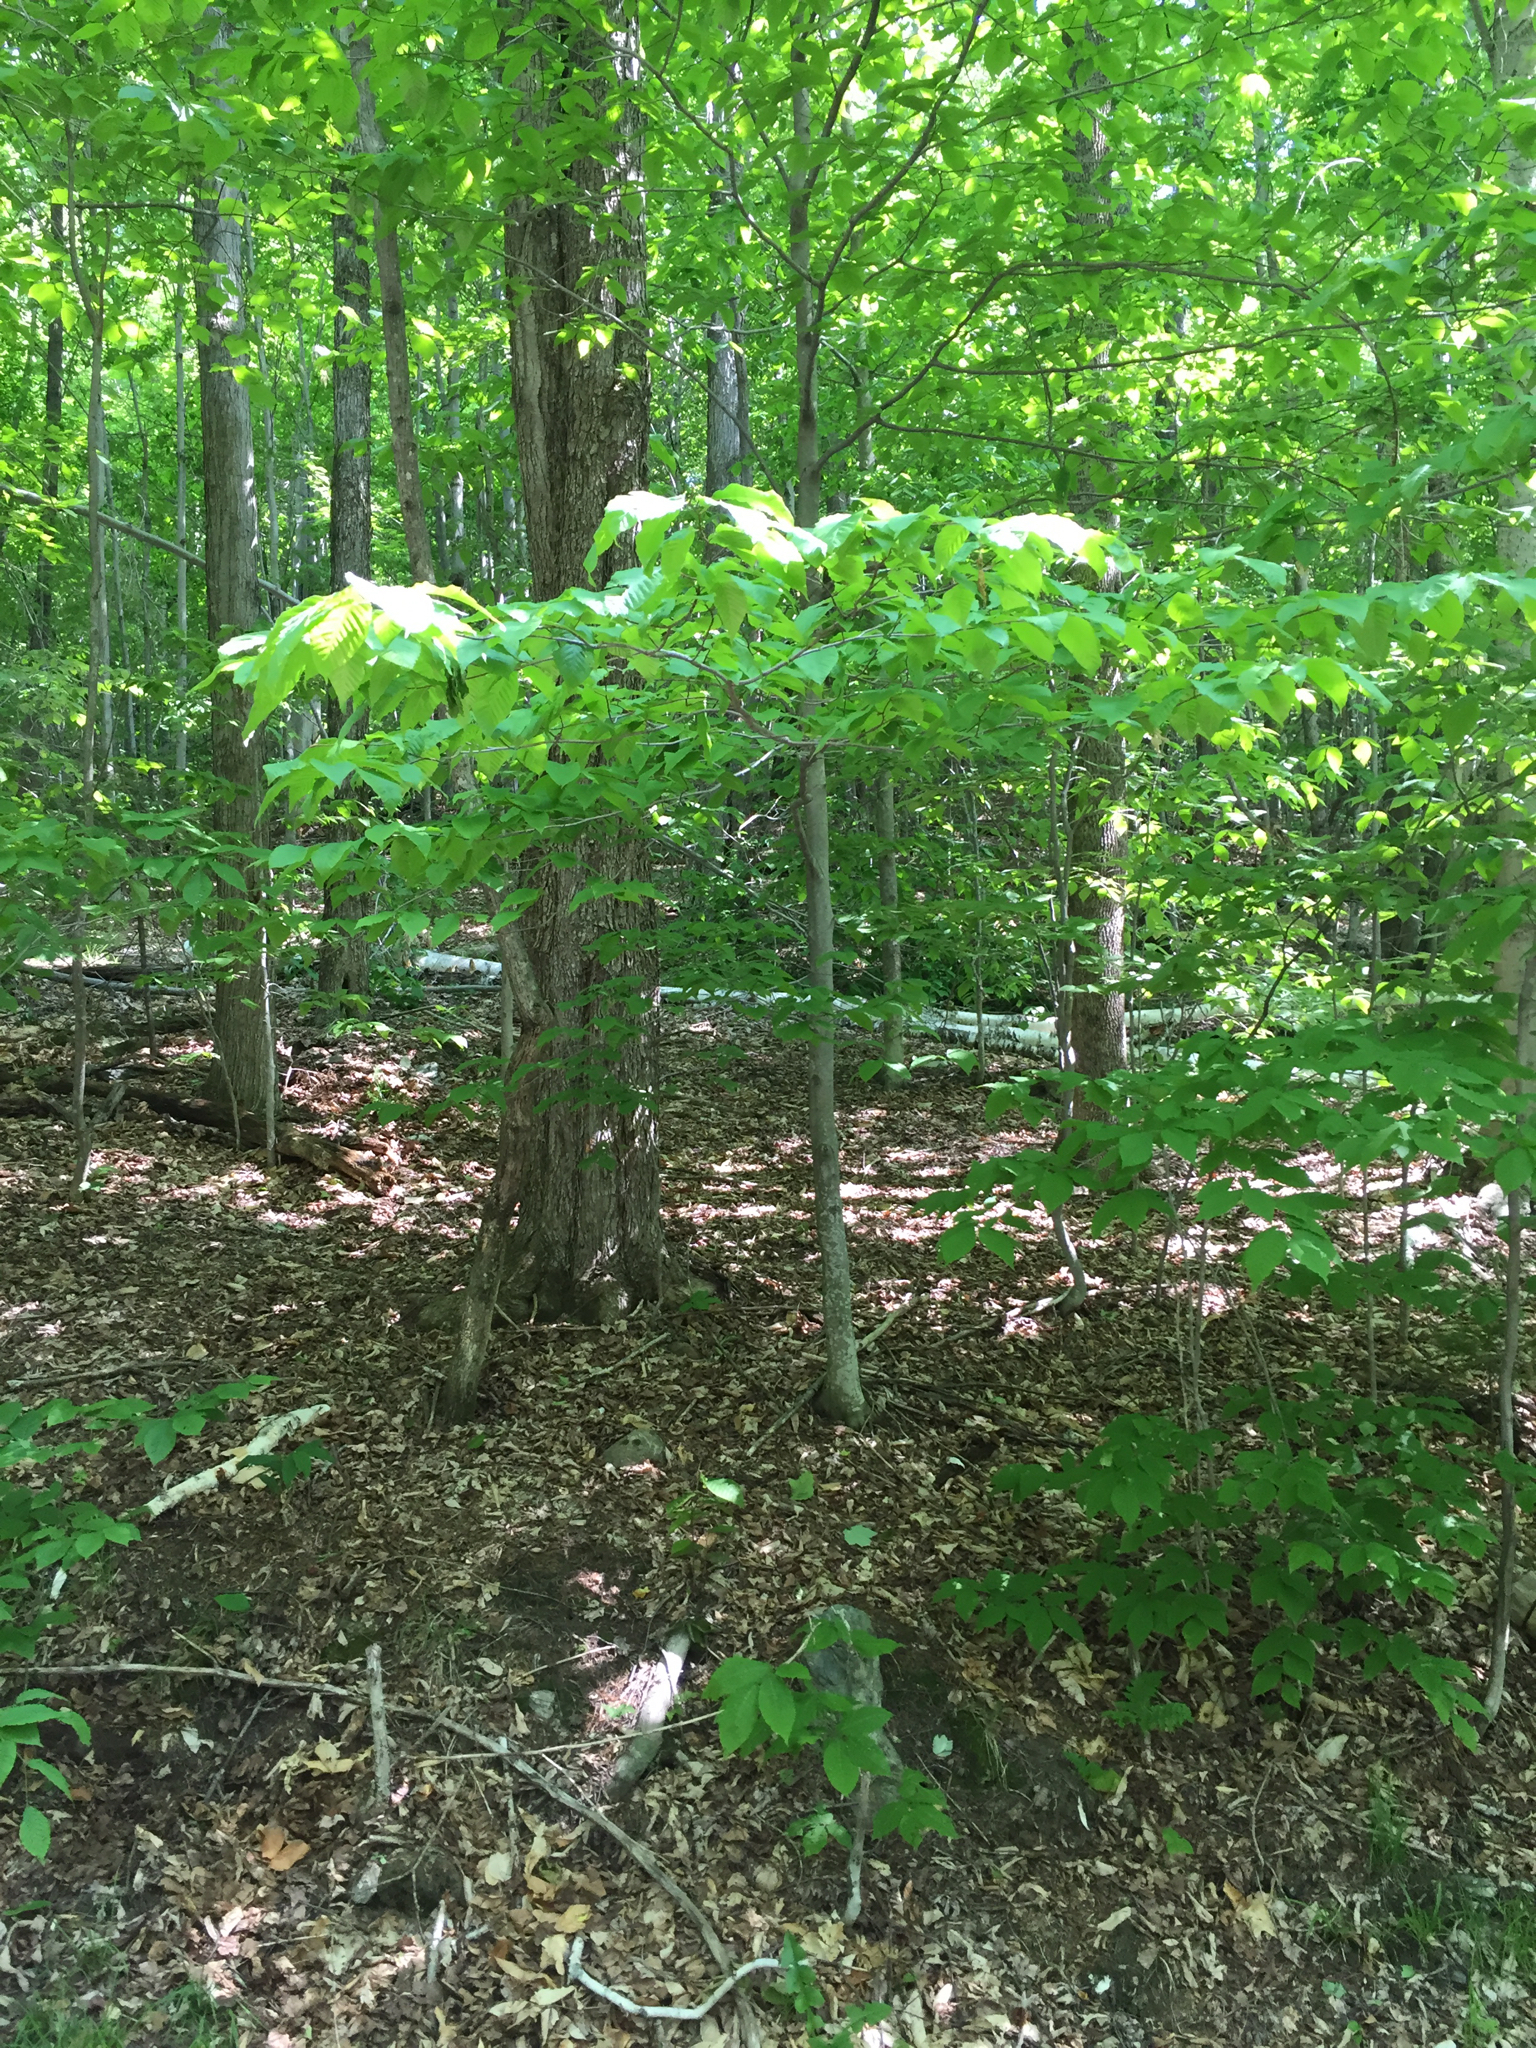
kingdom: Plantae
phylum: Tracheophyta
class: Magnoliopsida
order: Fagales
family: Fagaceae
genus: Fagus
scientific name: Fagus grandifolia
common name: American beech
